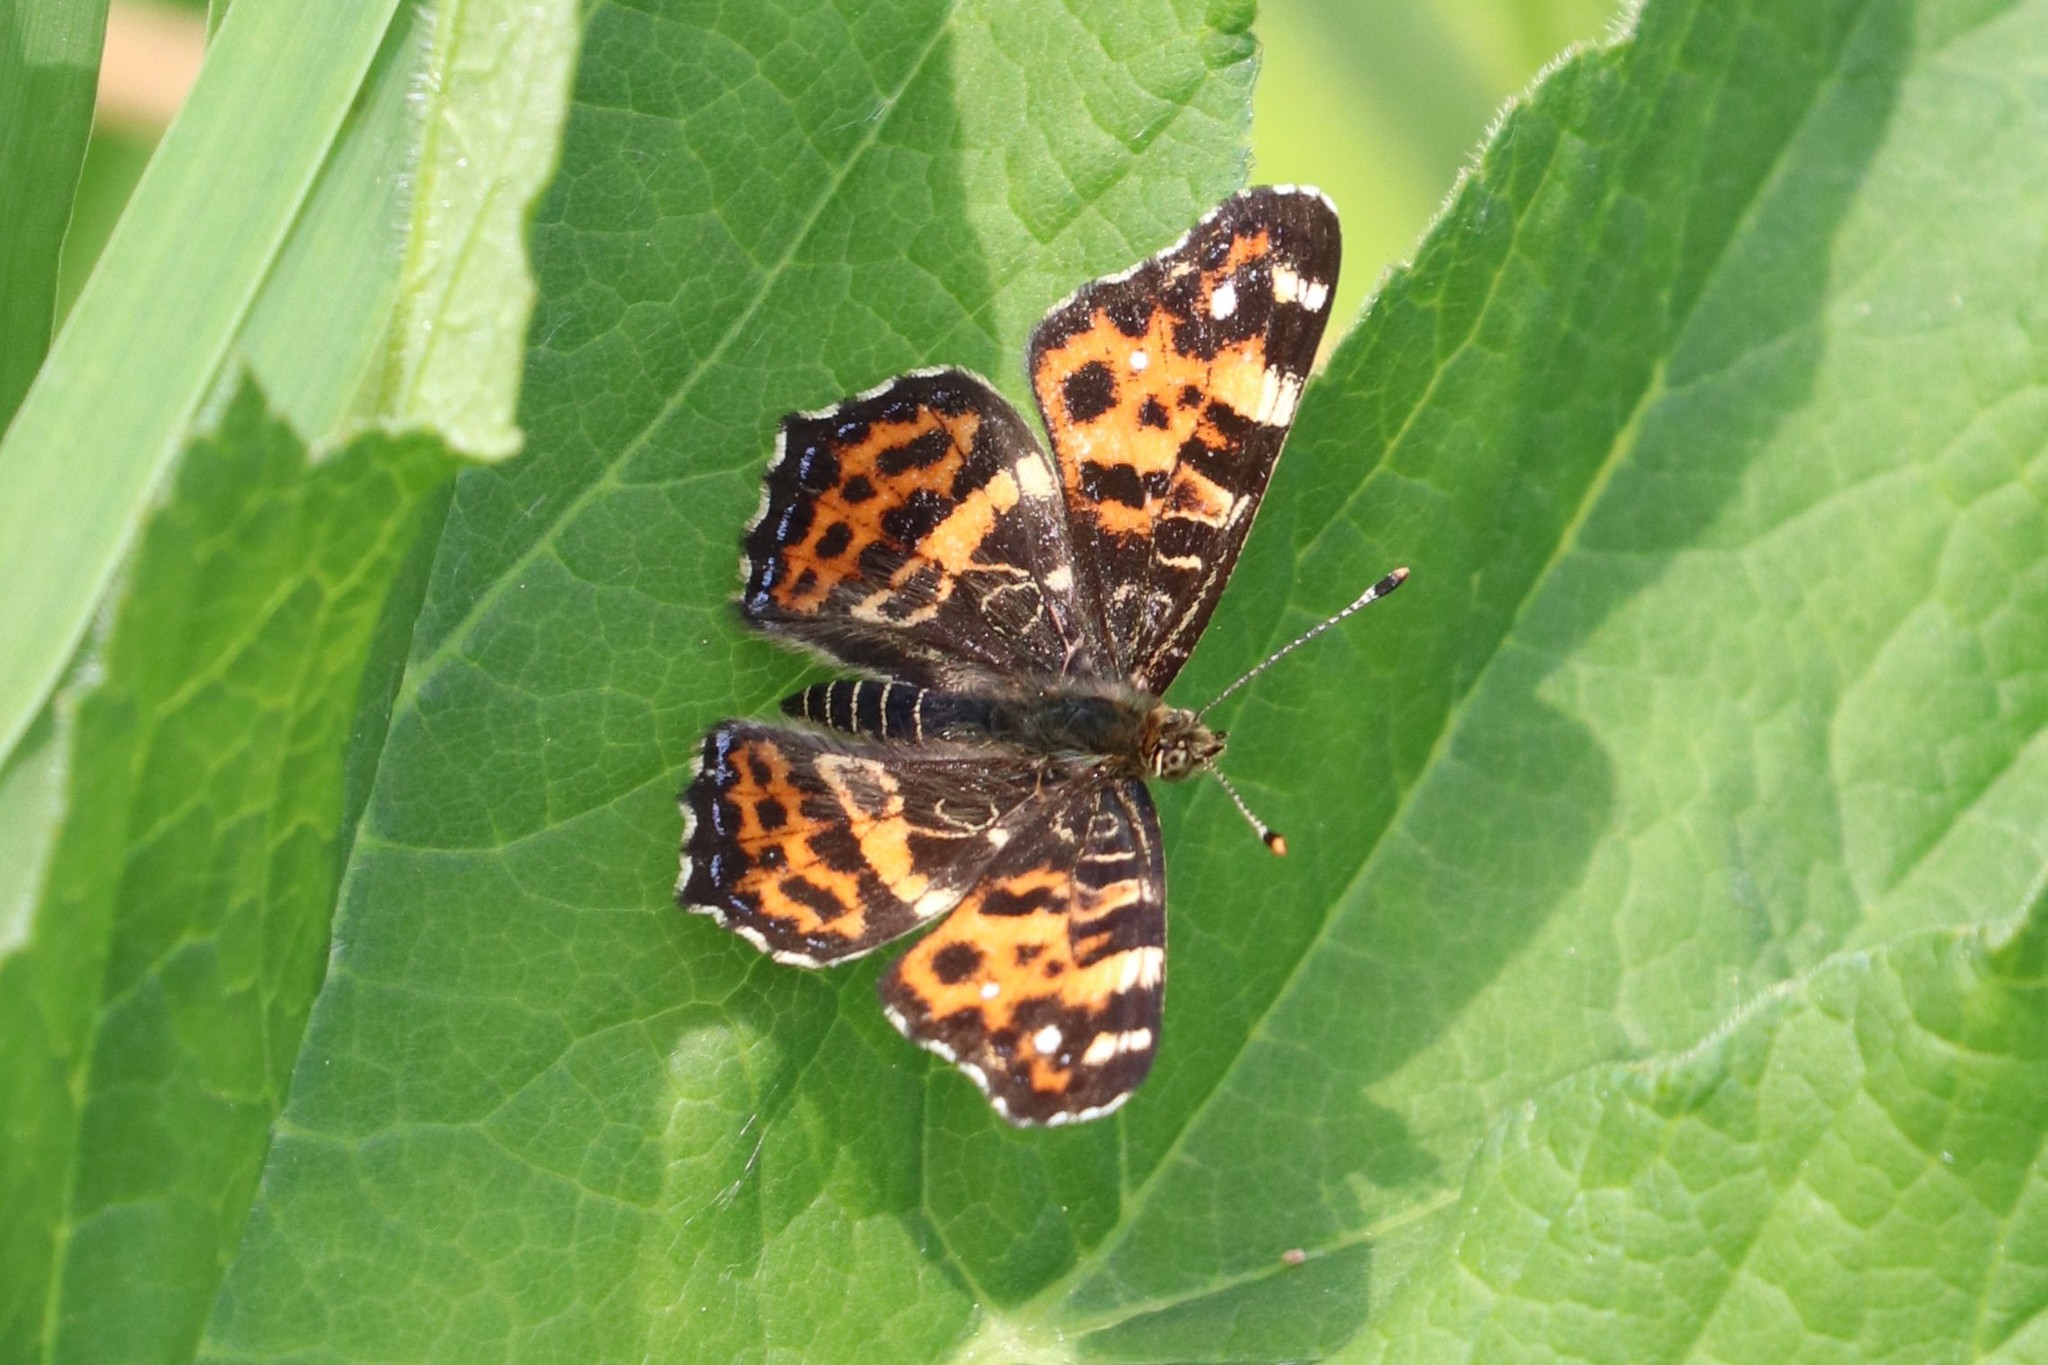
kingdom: Animalia
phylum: Arthropoda
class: Insecta
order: Lepidoptera
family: Nymphalidae
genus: Araschnia
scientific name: Araschnia levana
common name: Map butterfly
